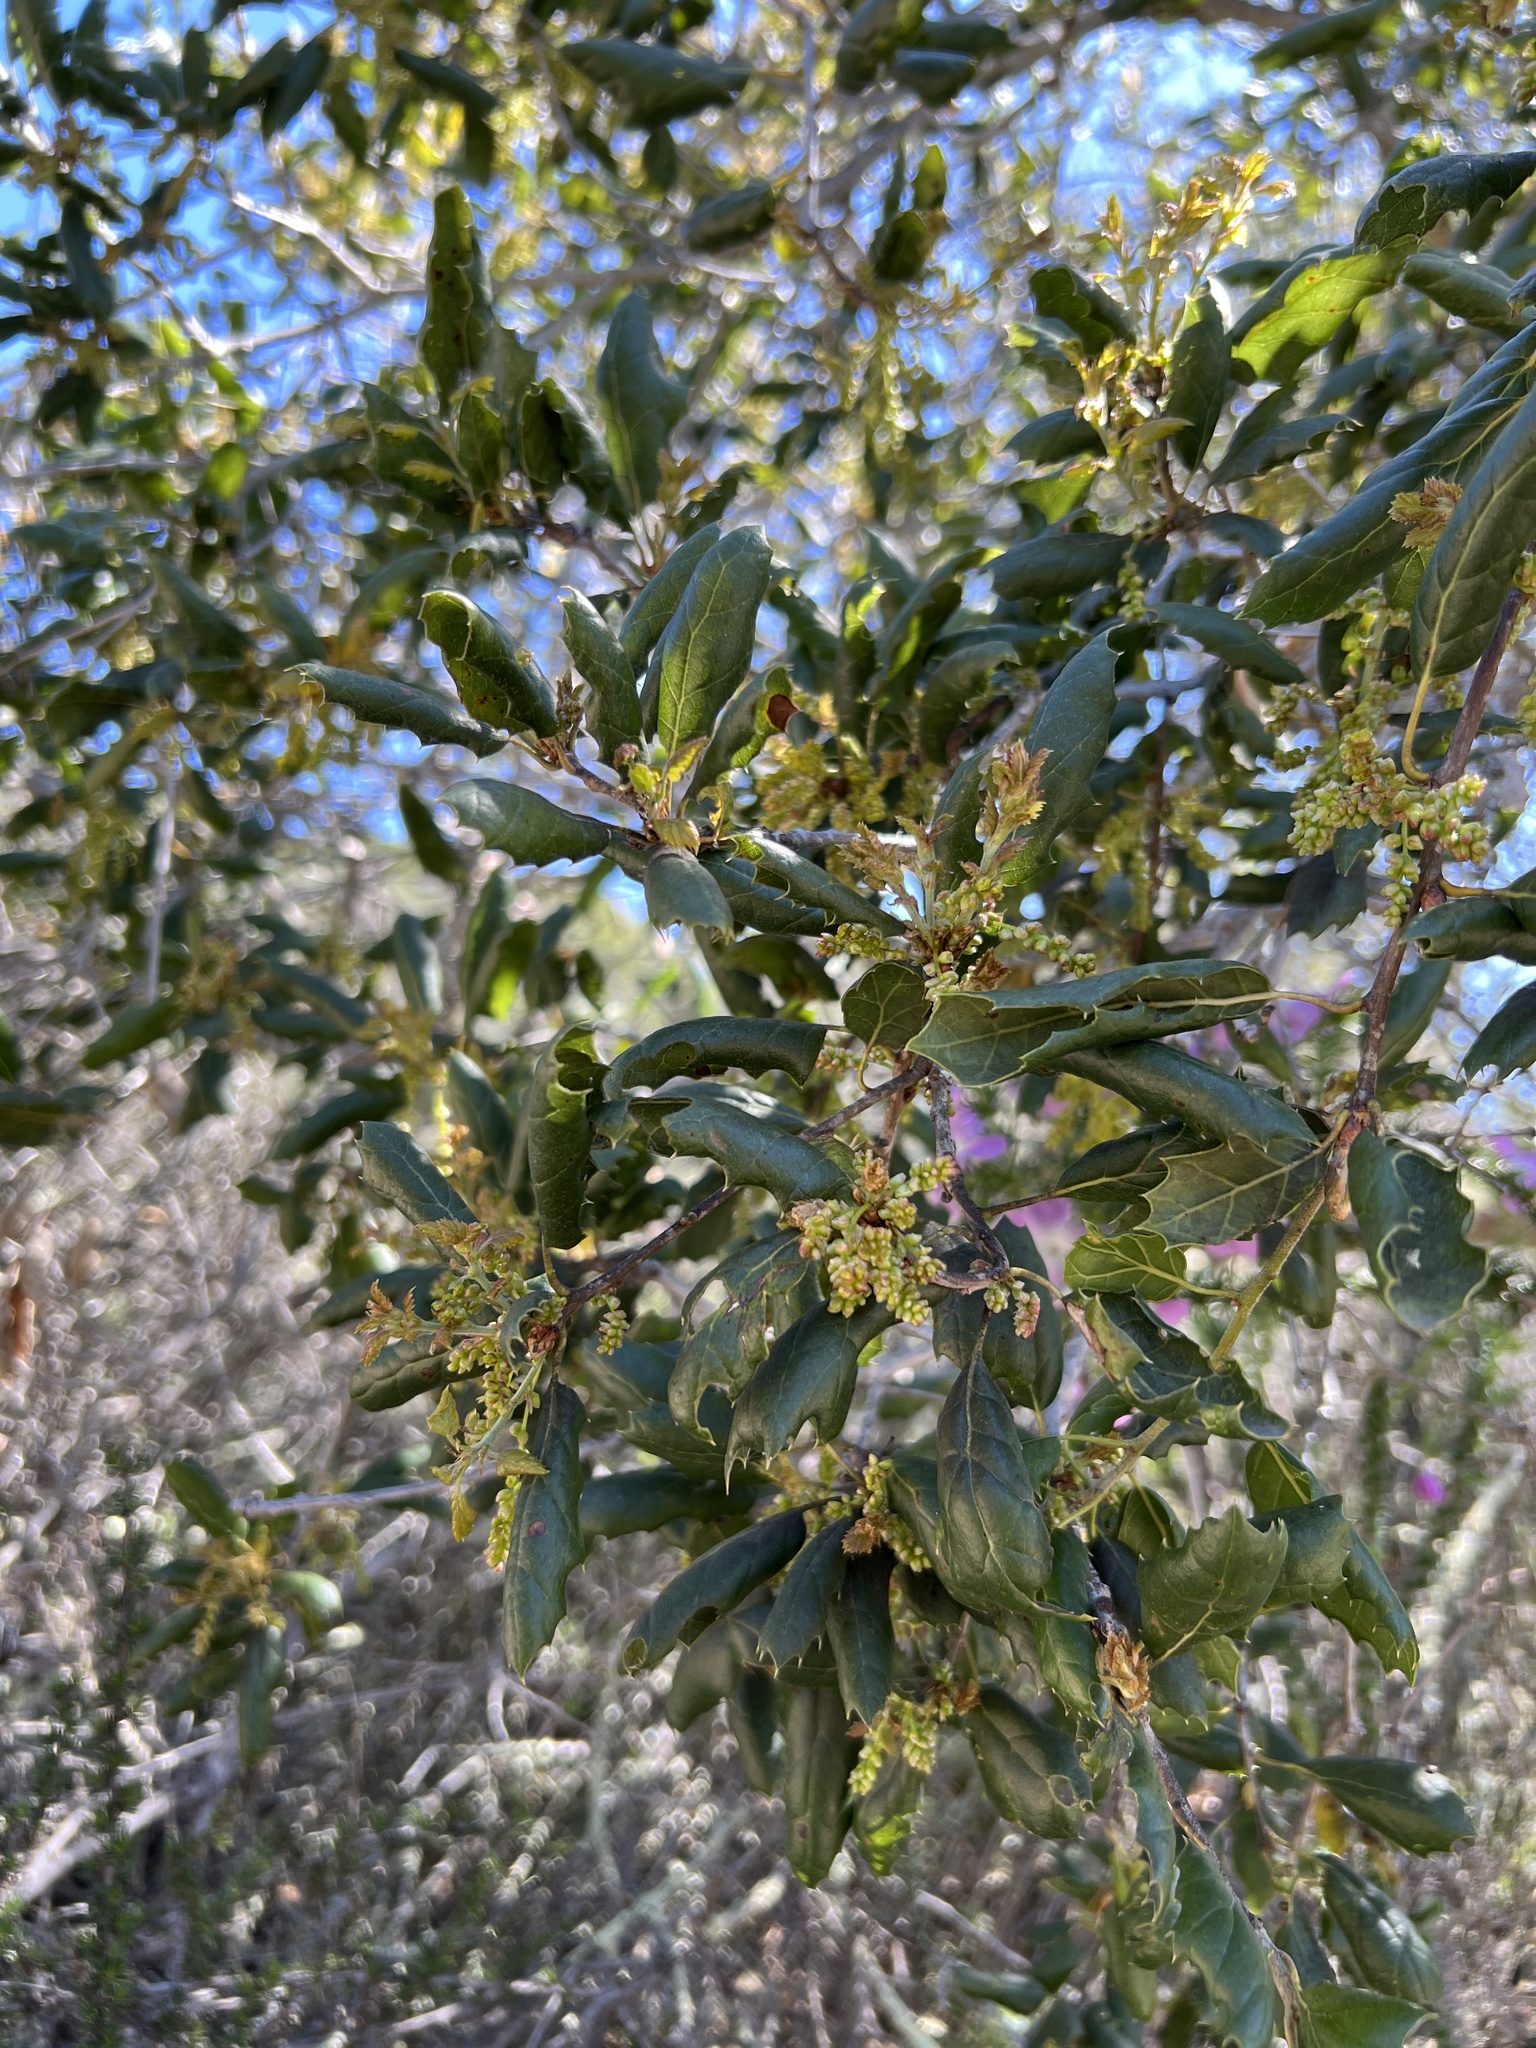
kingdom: Plantae
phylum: Tracheophyta
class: Magnoliopsida
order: Fagales
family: Fagaceae
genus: Quercus
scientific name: Quercus agrifolia
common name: California live oak
